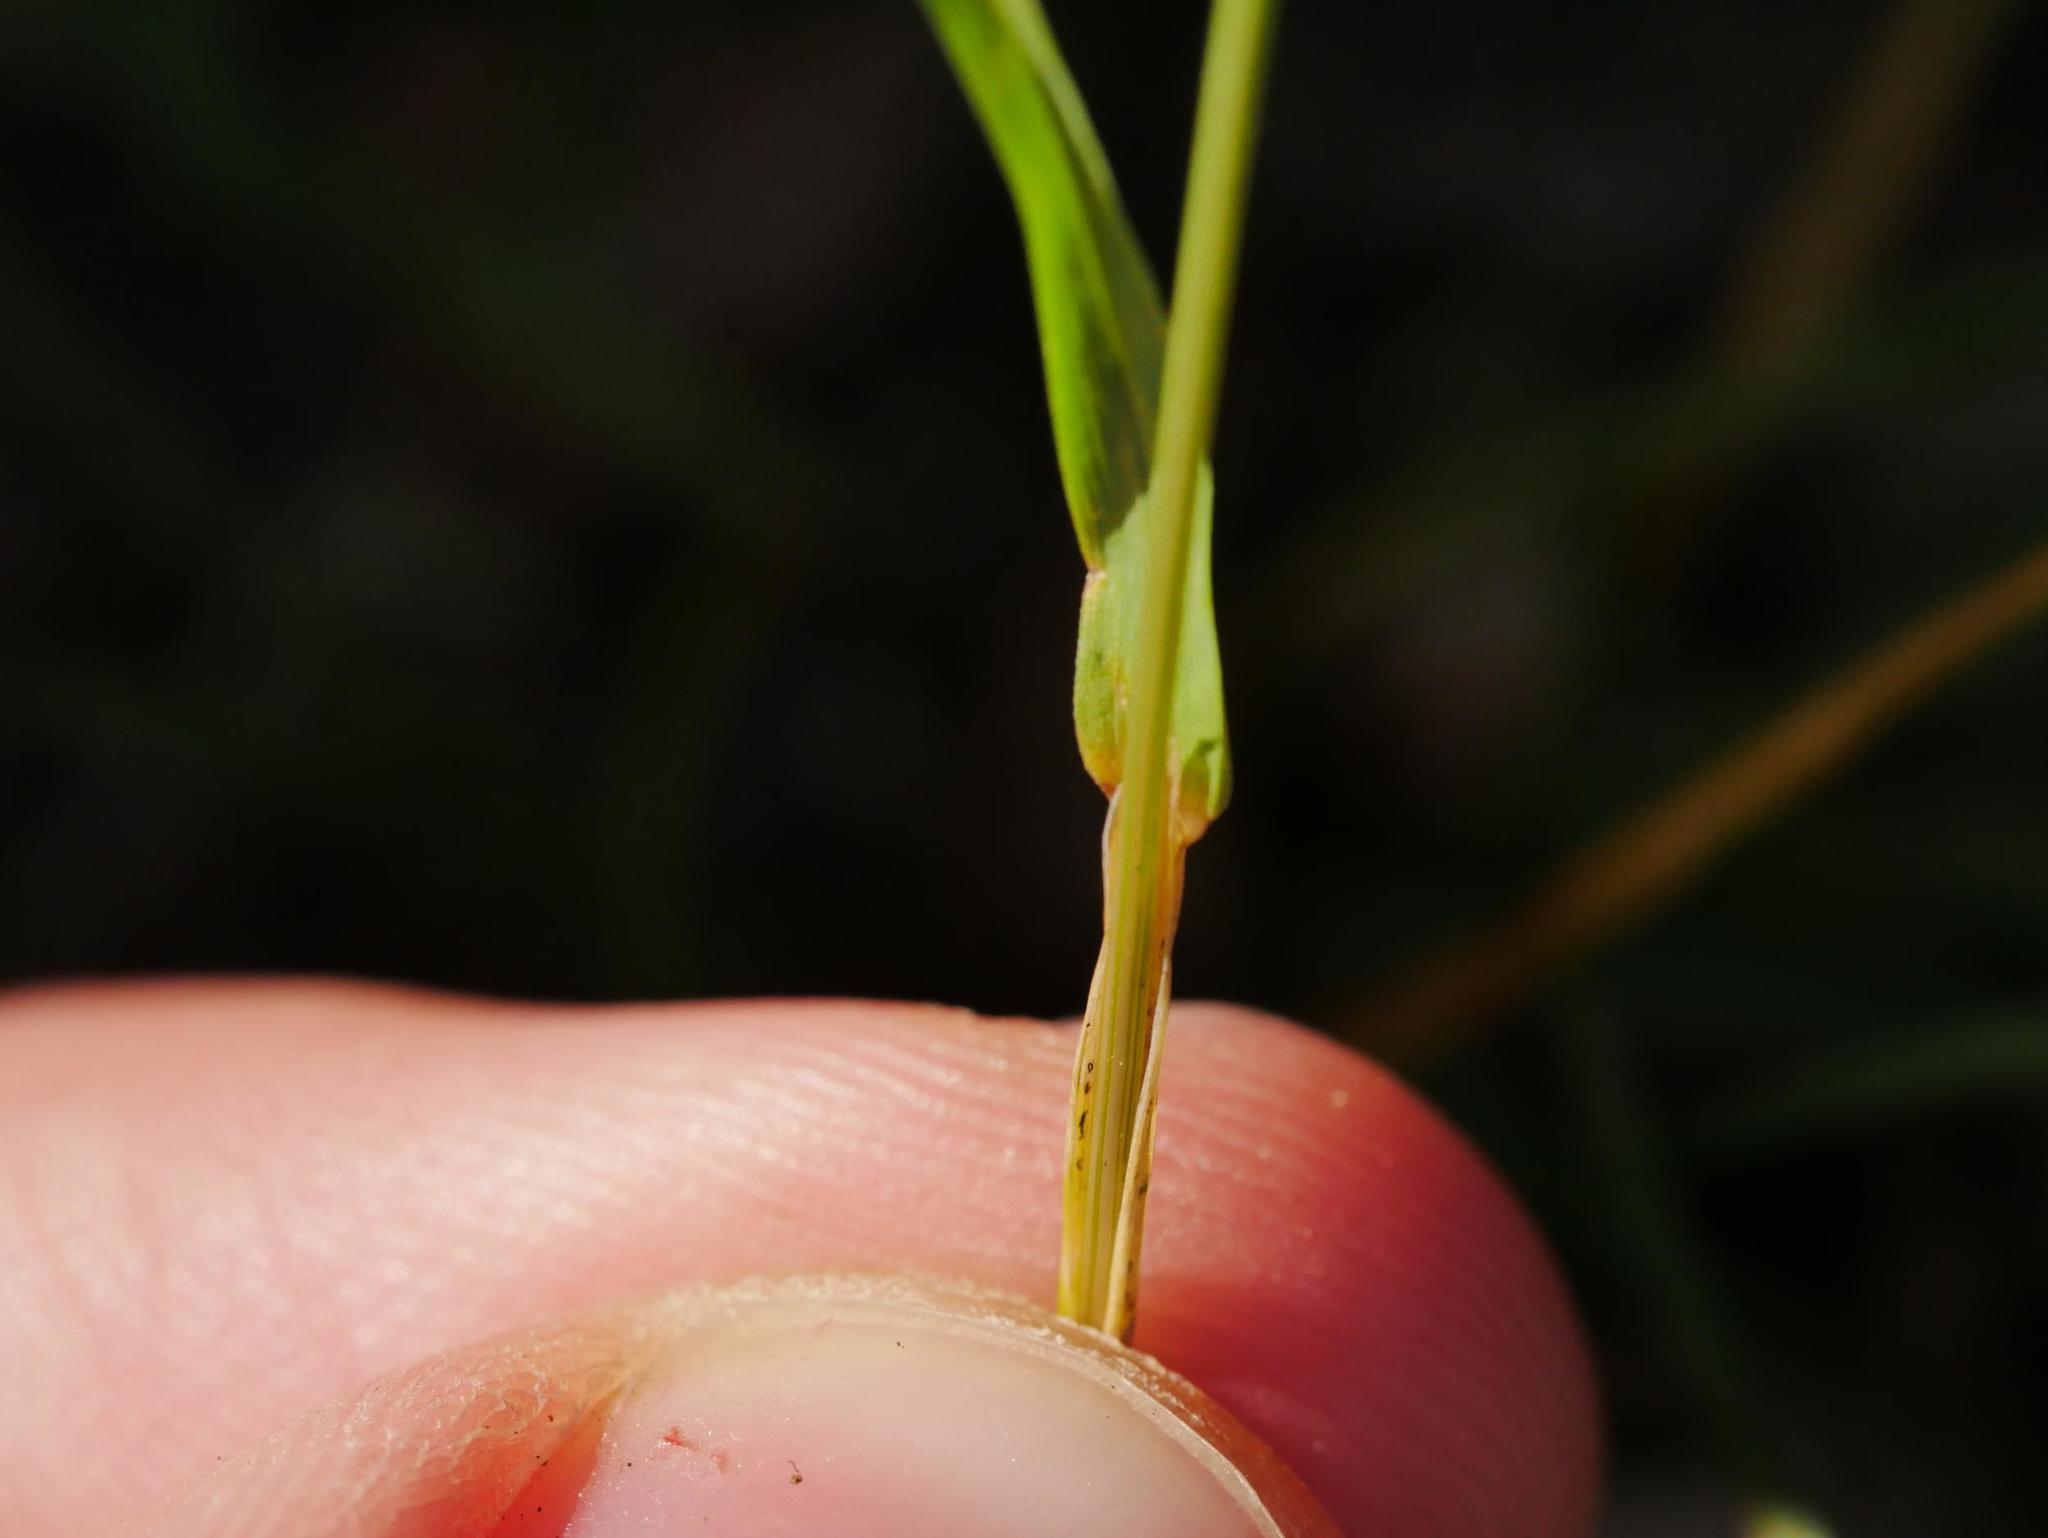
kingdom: Plantae
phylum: Tracheophyta
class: Liliopsida
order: Poales
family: Poaceae
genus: Poa
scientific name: Poa annua
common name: Annual bluegrass
